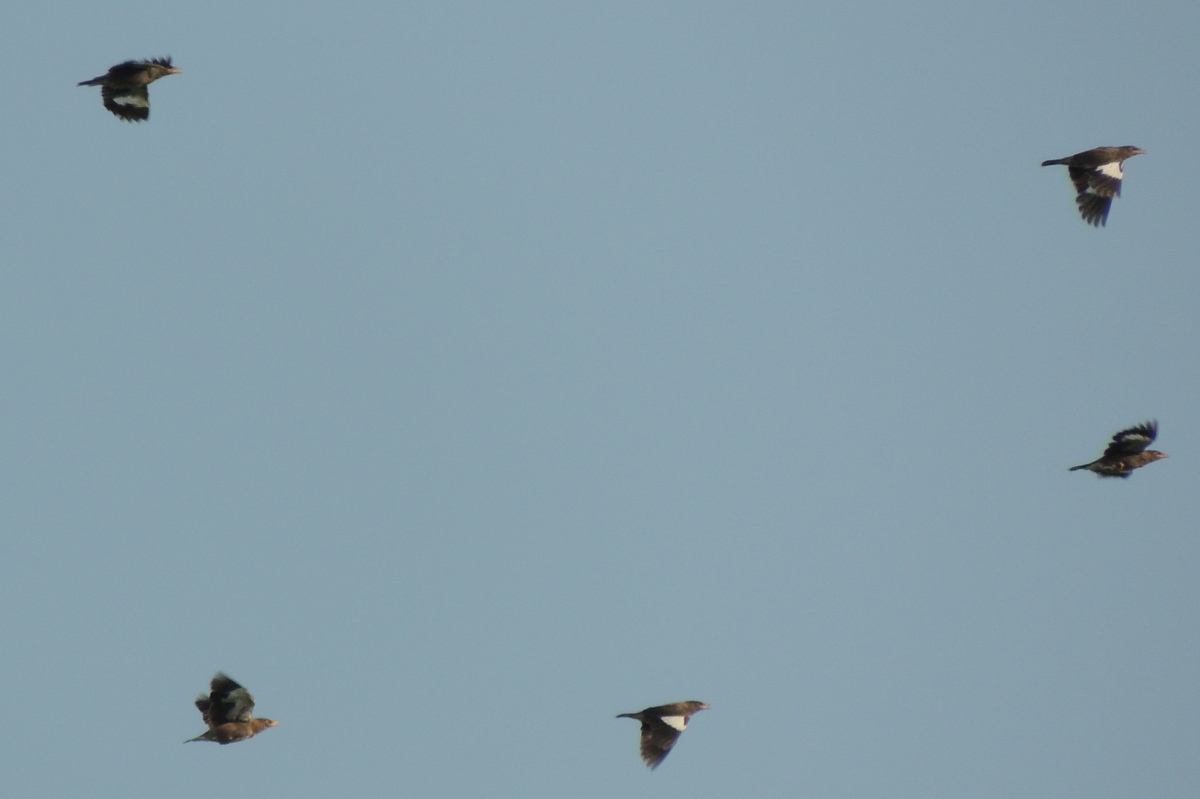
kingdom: Animalia
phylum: Chordata
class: Aves
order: Passeriformes
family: Sturnidae
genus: Acridotheres
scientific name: Acridotheres tristis
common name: Common myna
